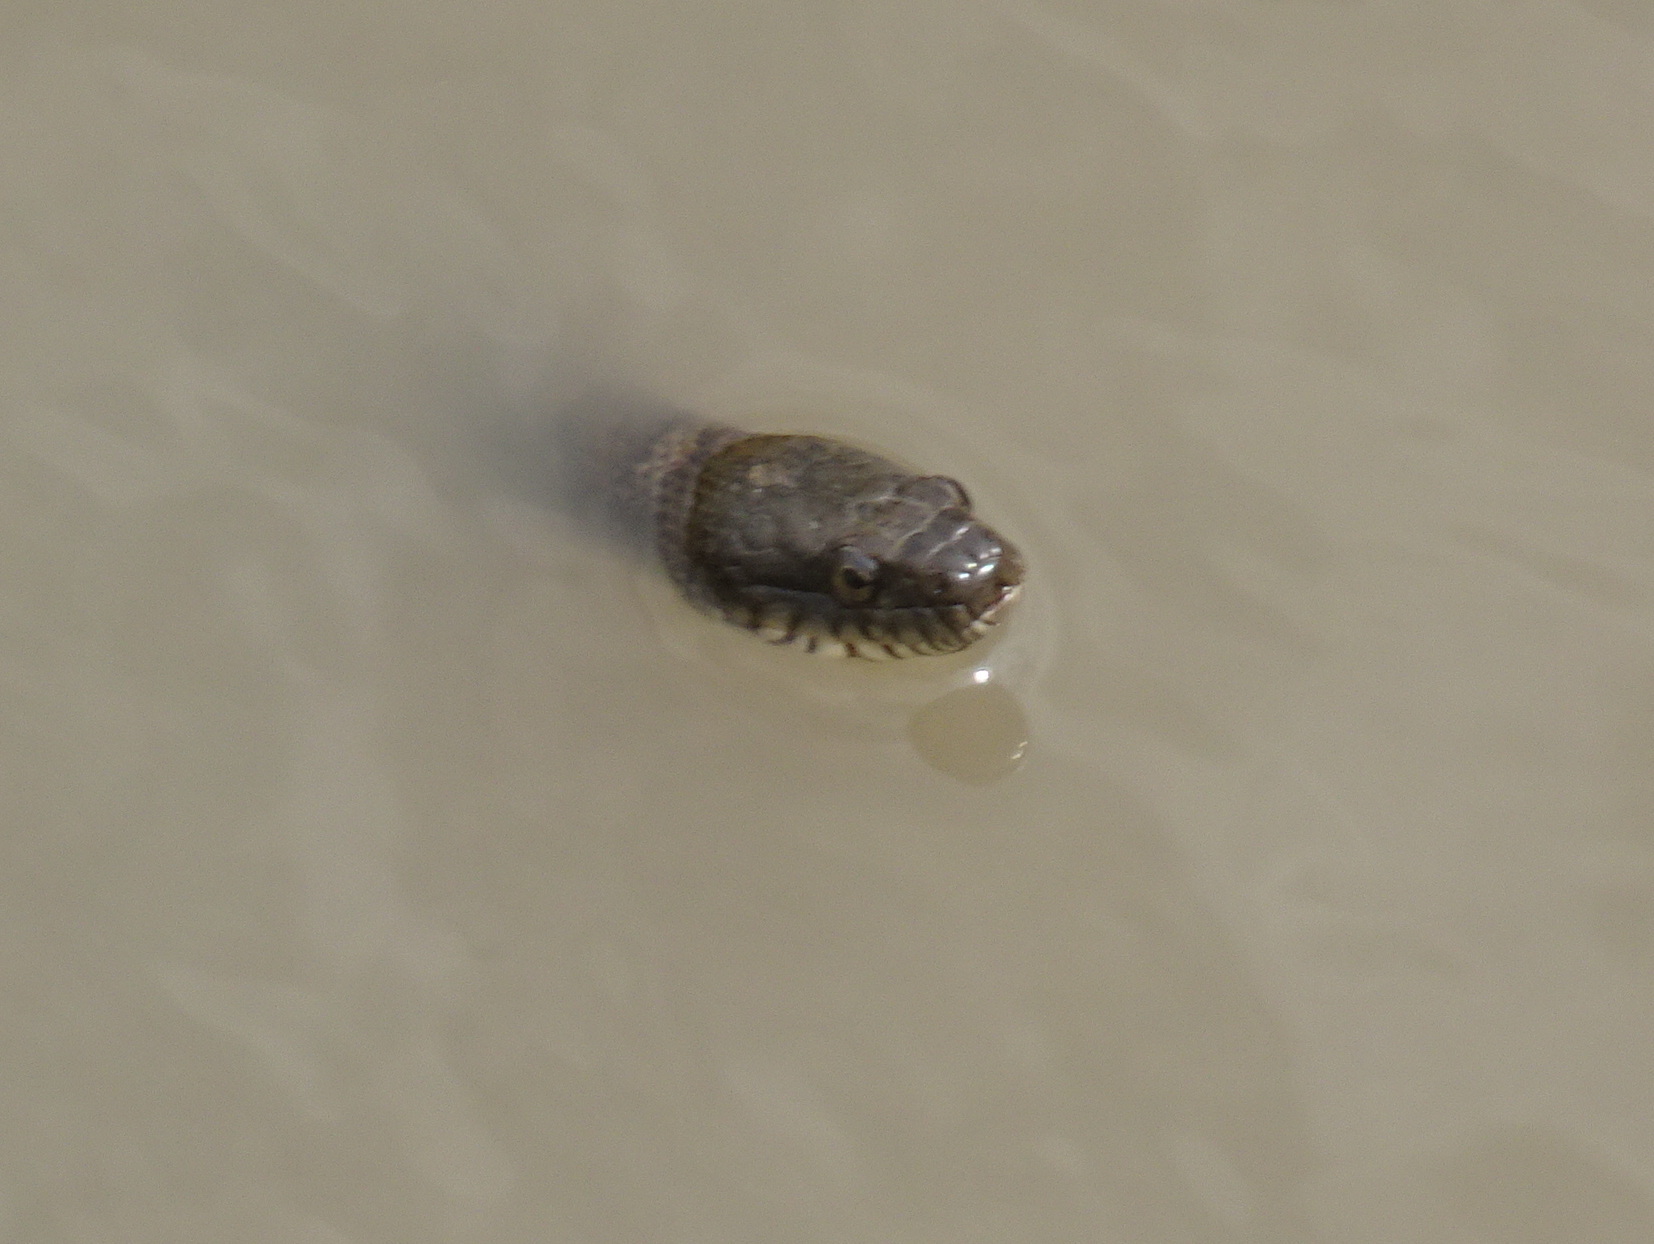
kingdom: Animalia
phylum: Chordata
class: Squamata
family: Colubridae
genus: Nerodia
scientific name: Nerodia sipedon
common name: Northern water snake
